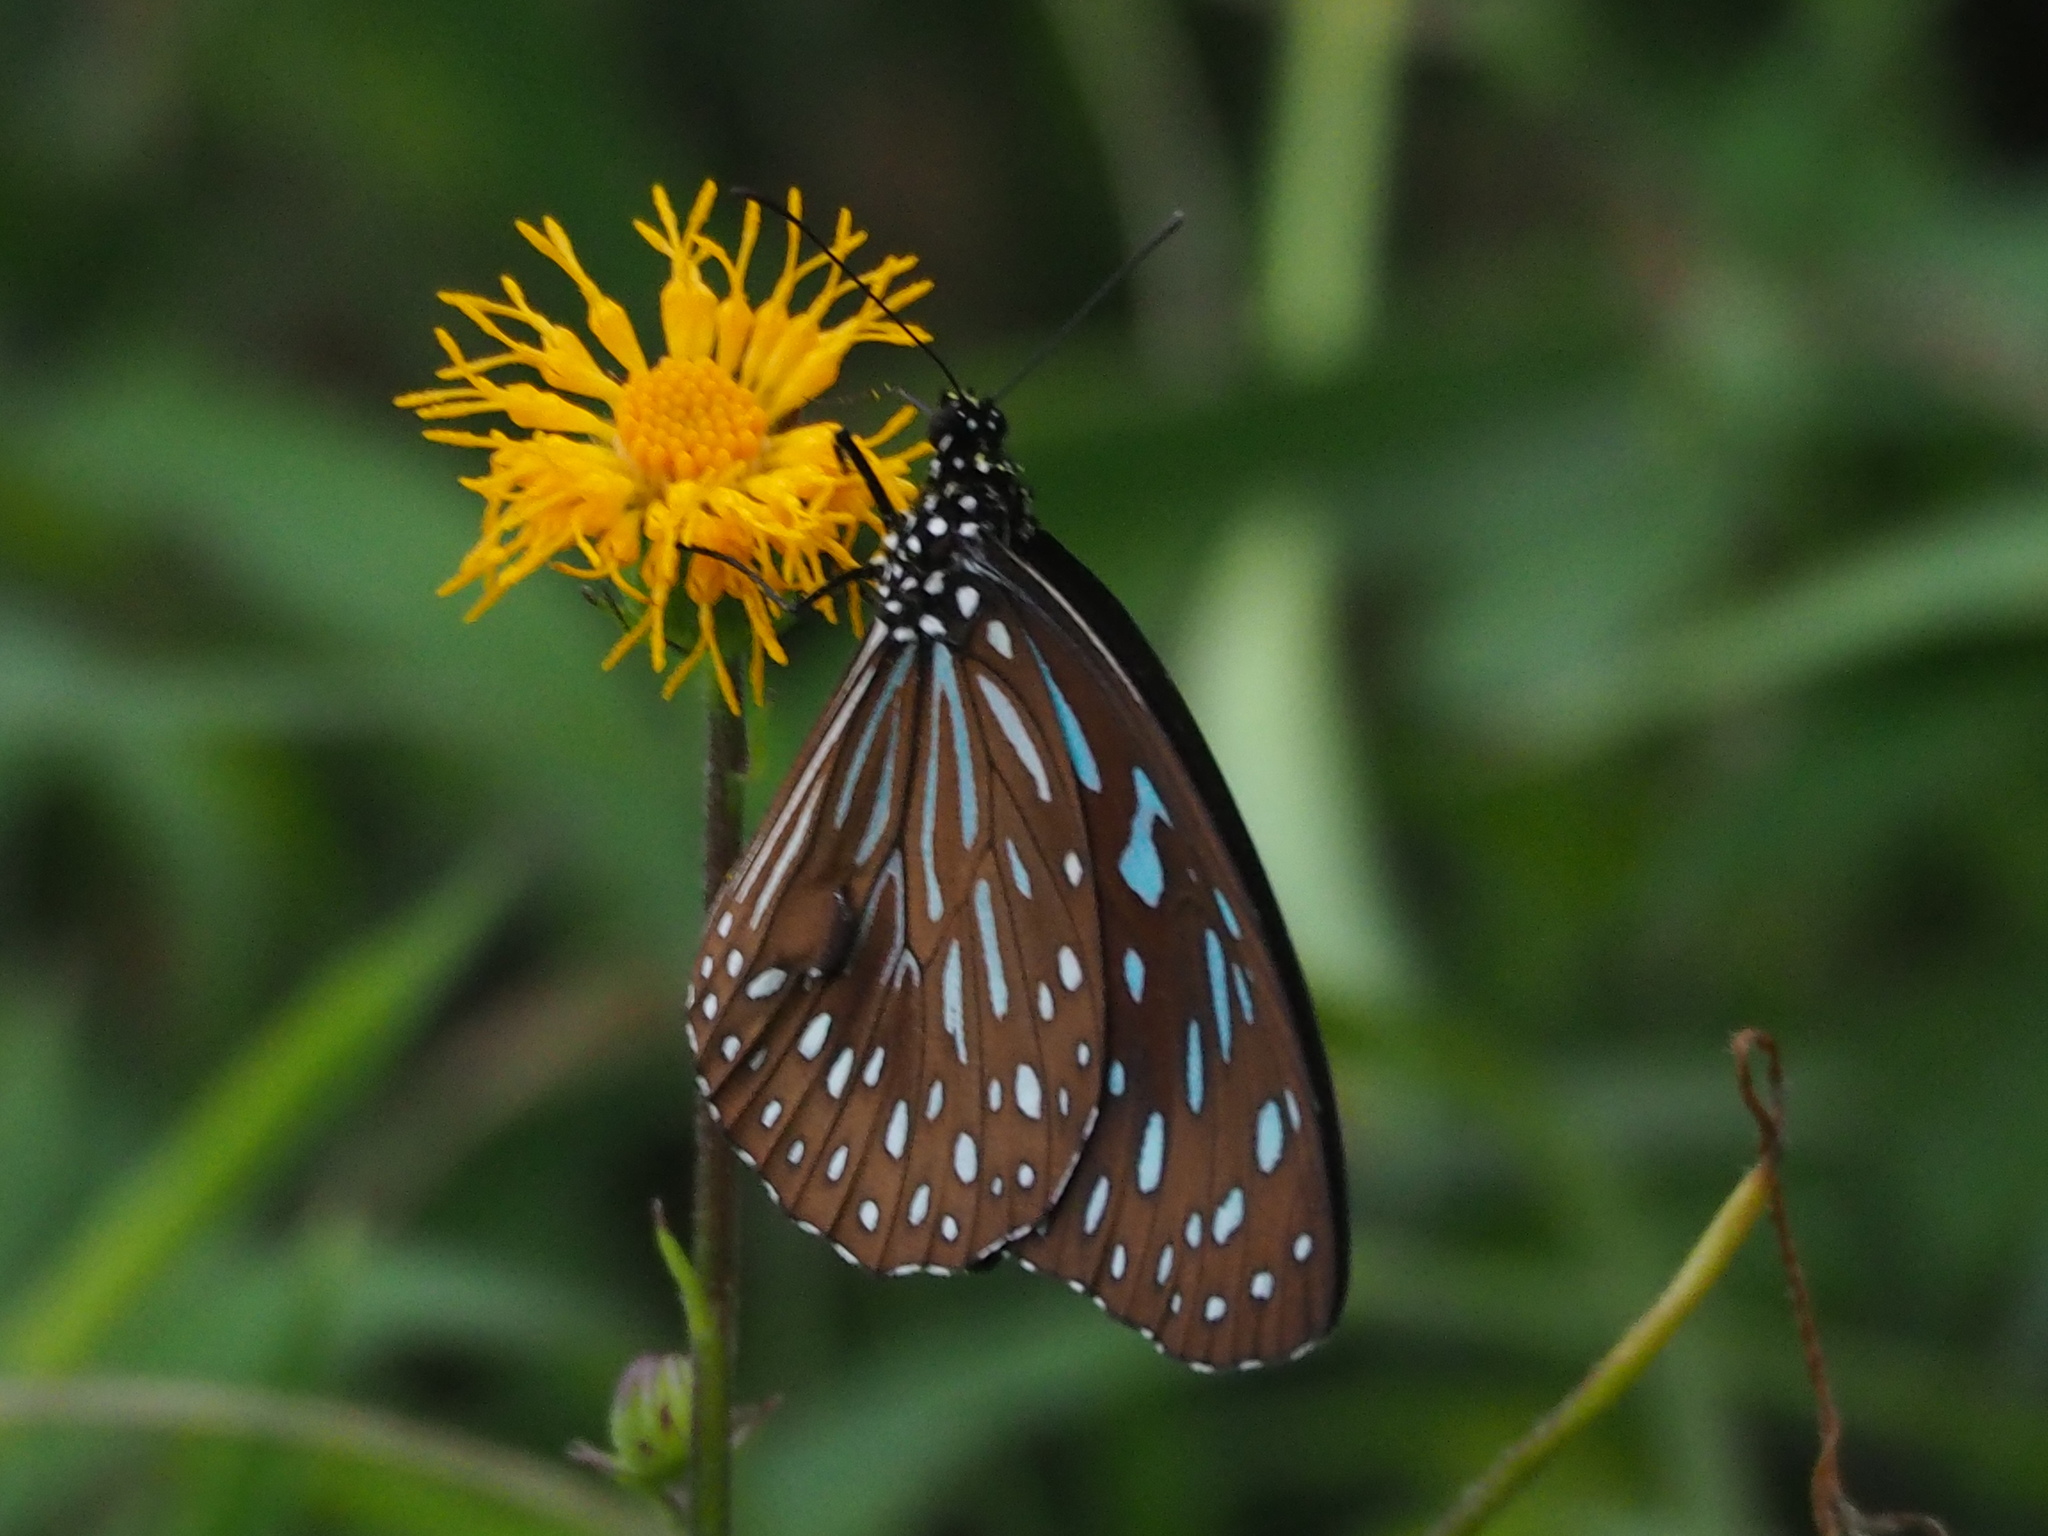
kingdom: Animalia
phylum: Arthropoda
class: Insecta
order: Lepidoptera
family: Nymphalidae
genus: Tirumala
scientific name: Tirumala septentrionis
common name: Dark blue tiger butterfly
